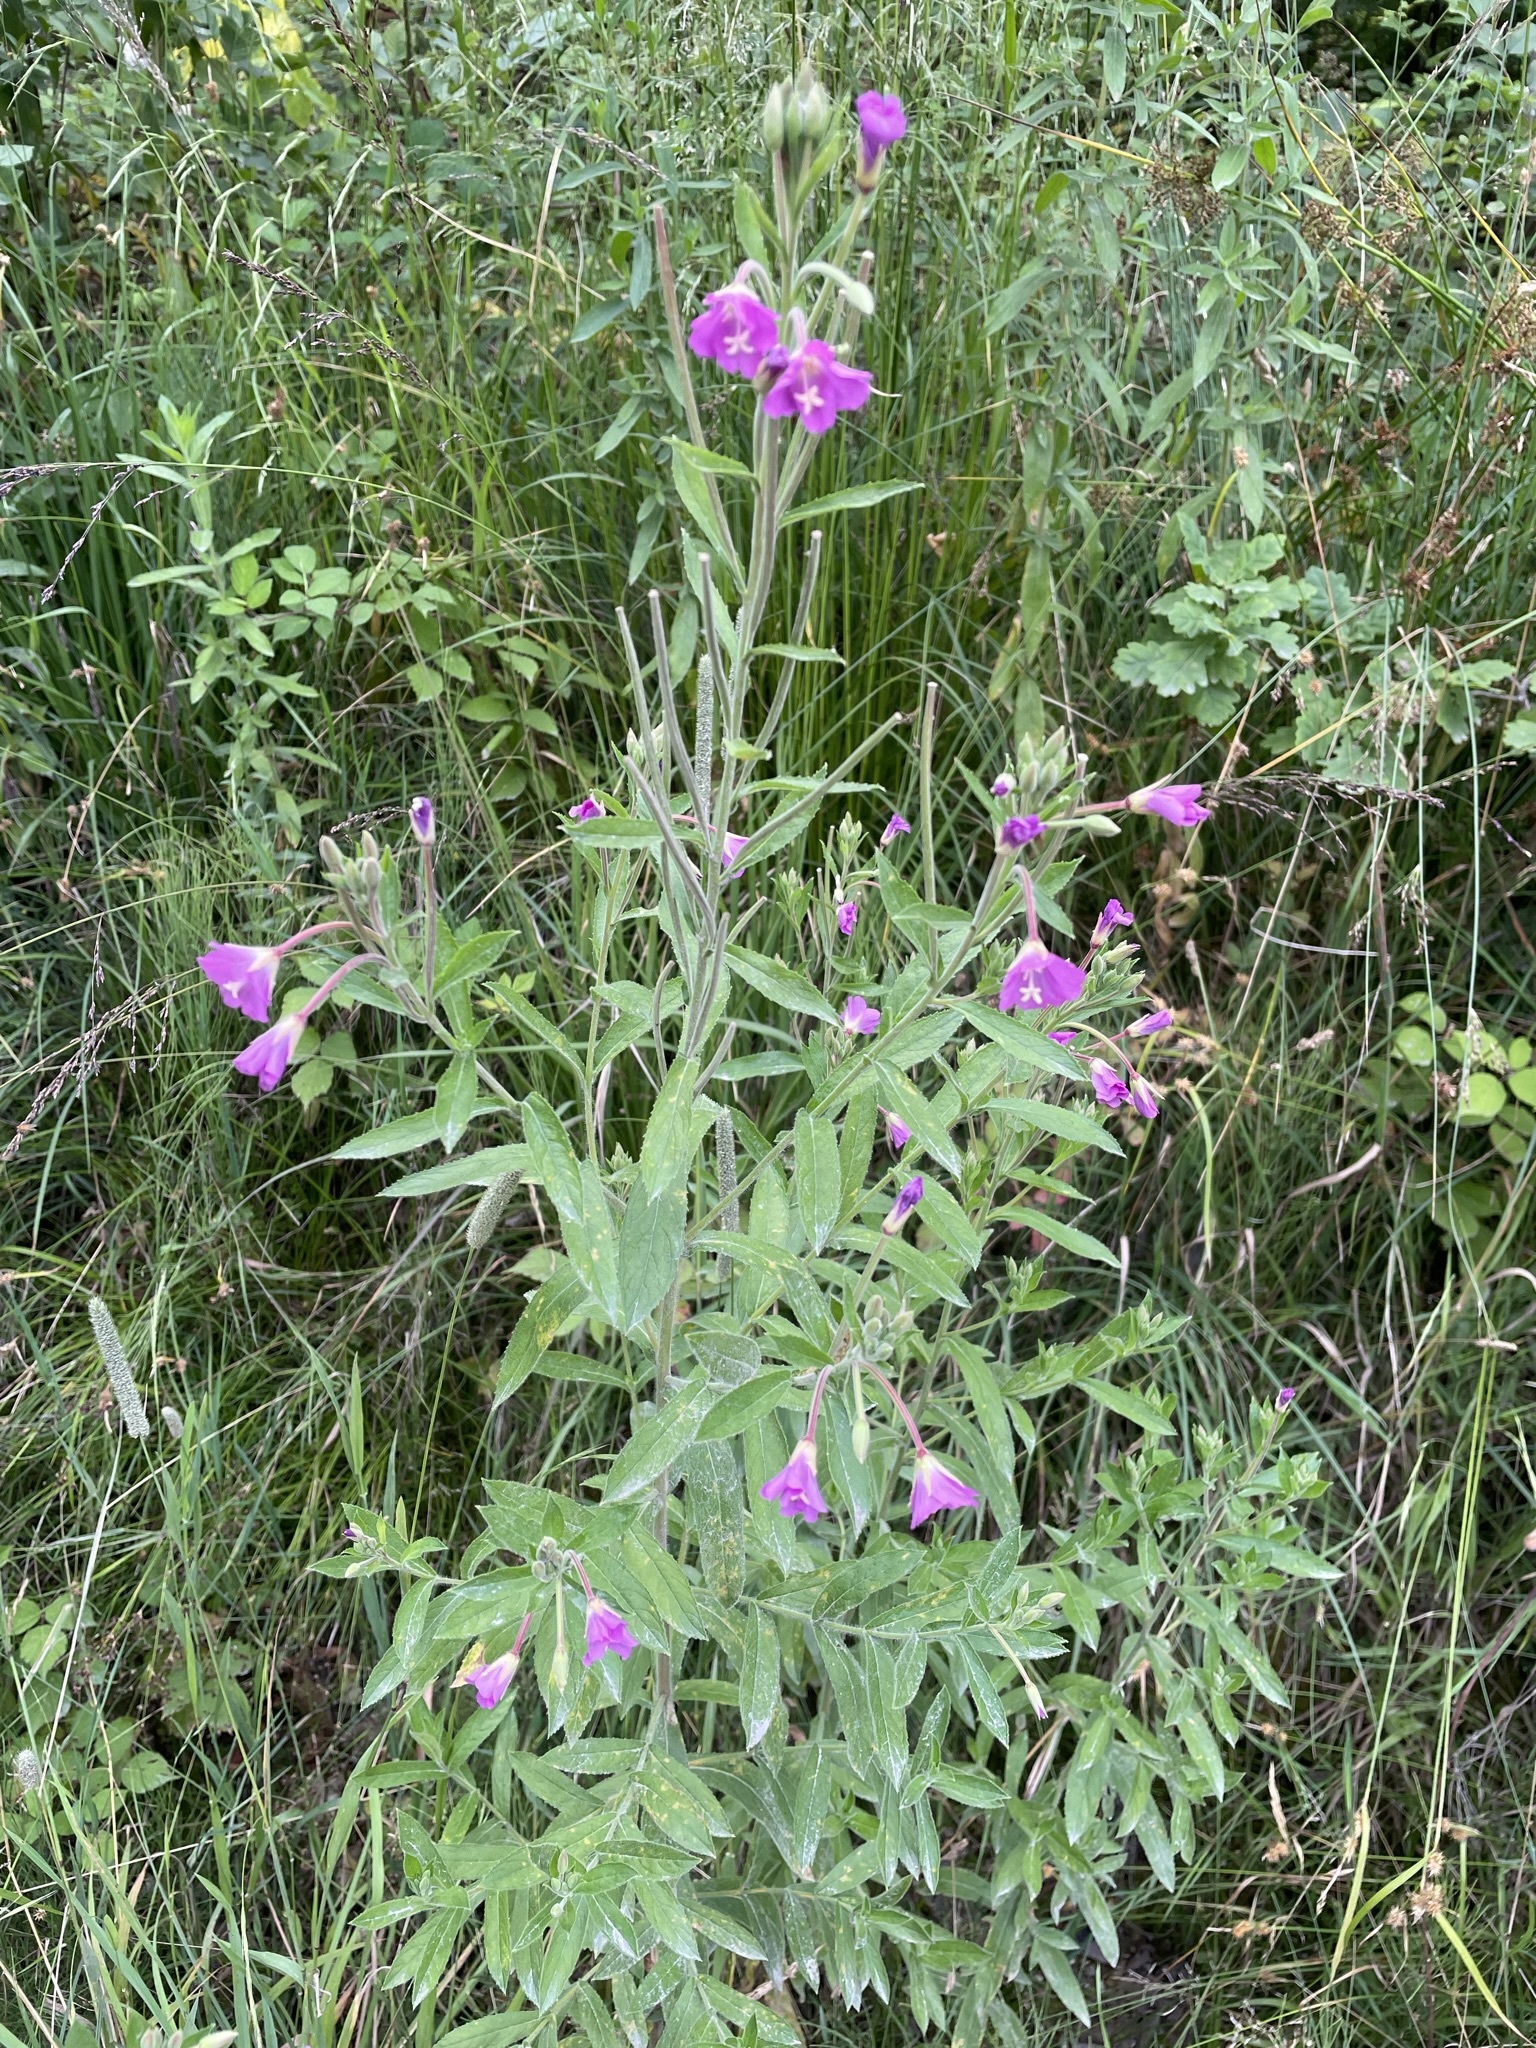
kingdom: Plantae
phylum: Tracheophyta
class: Magnoliopsida
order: Myrtales
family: Onagraceae
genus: Epilobium
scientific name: Epilobium hirsutum
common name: Great willowherb
